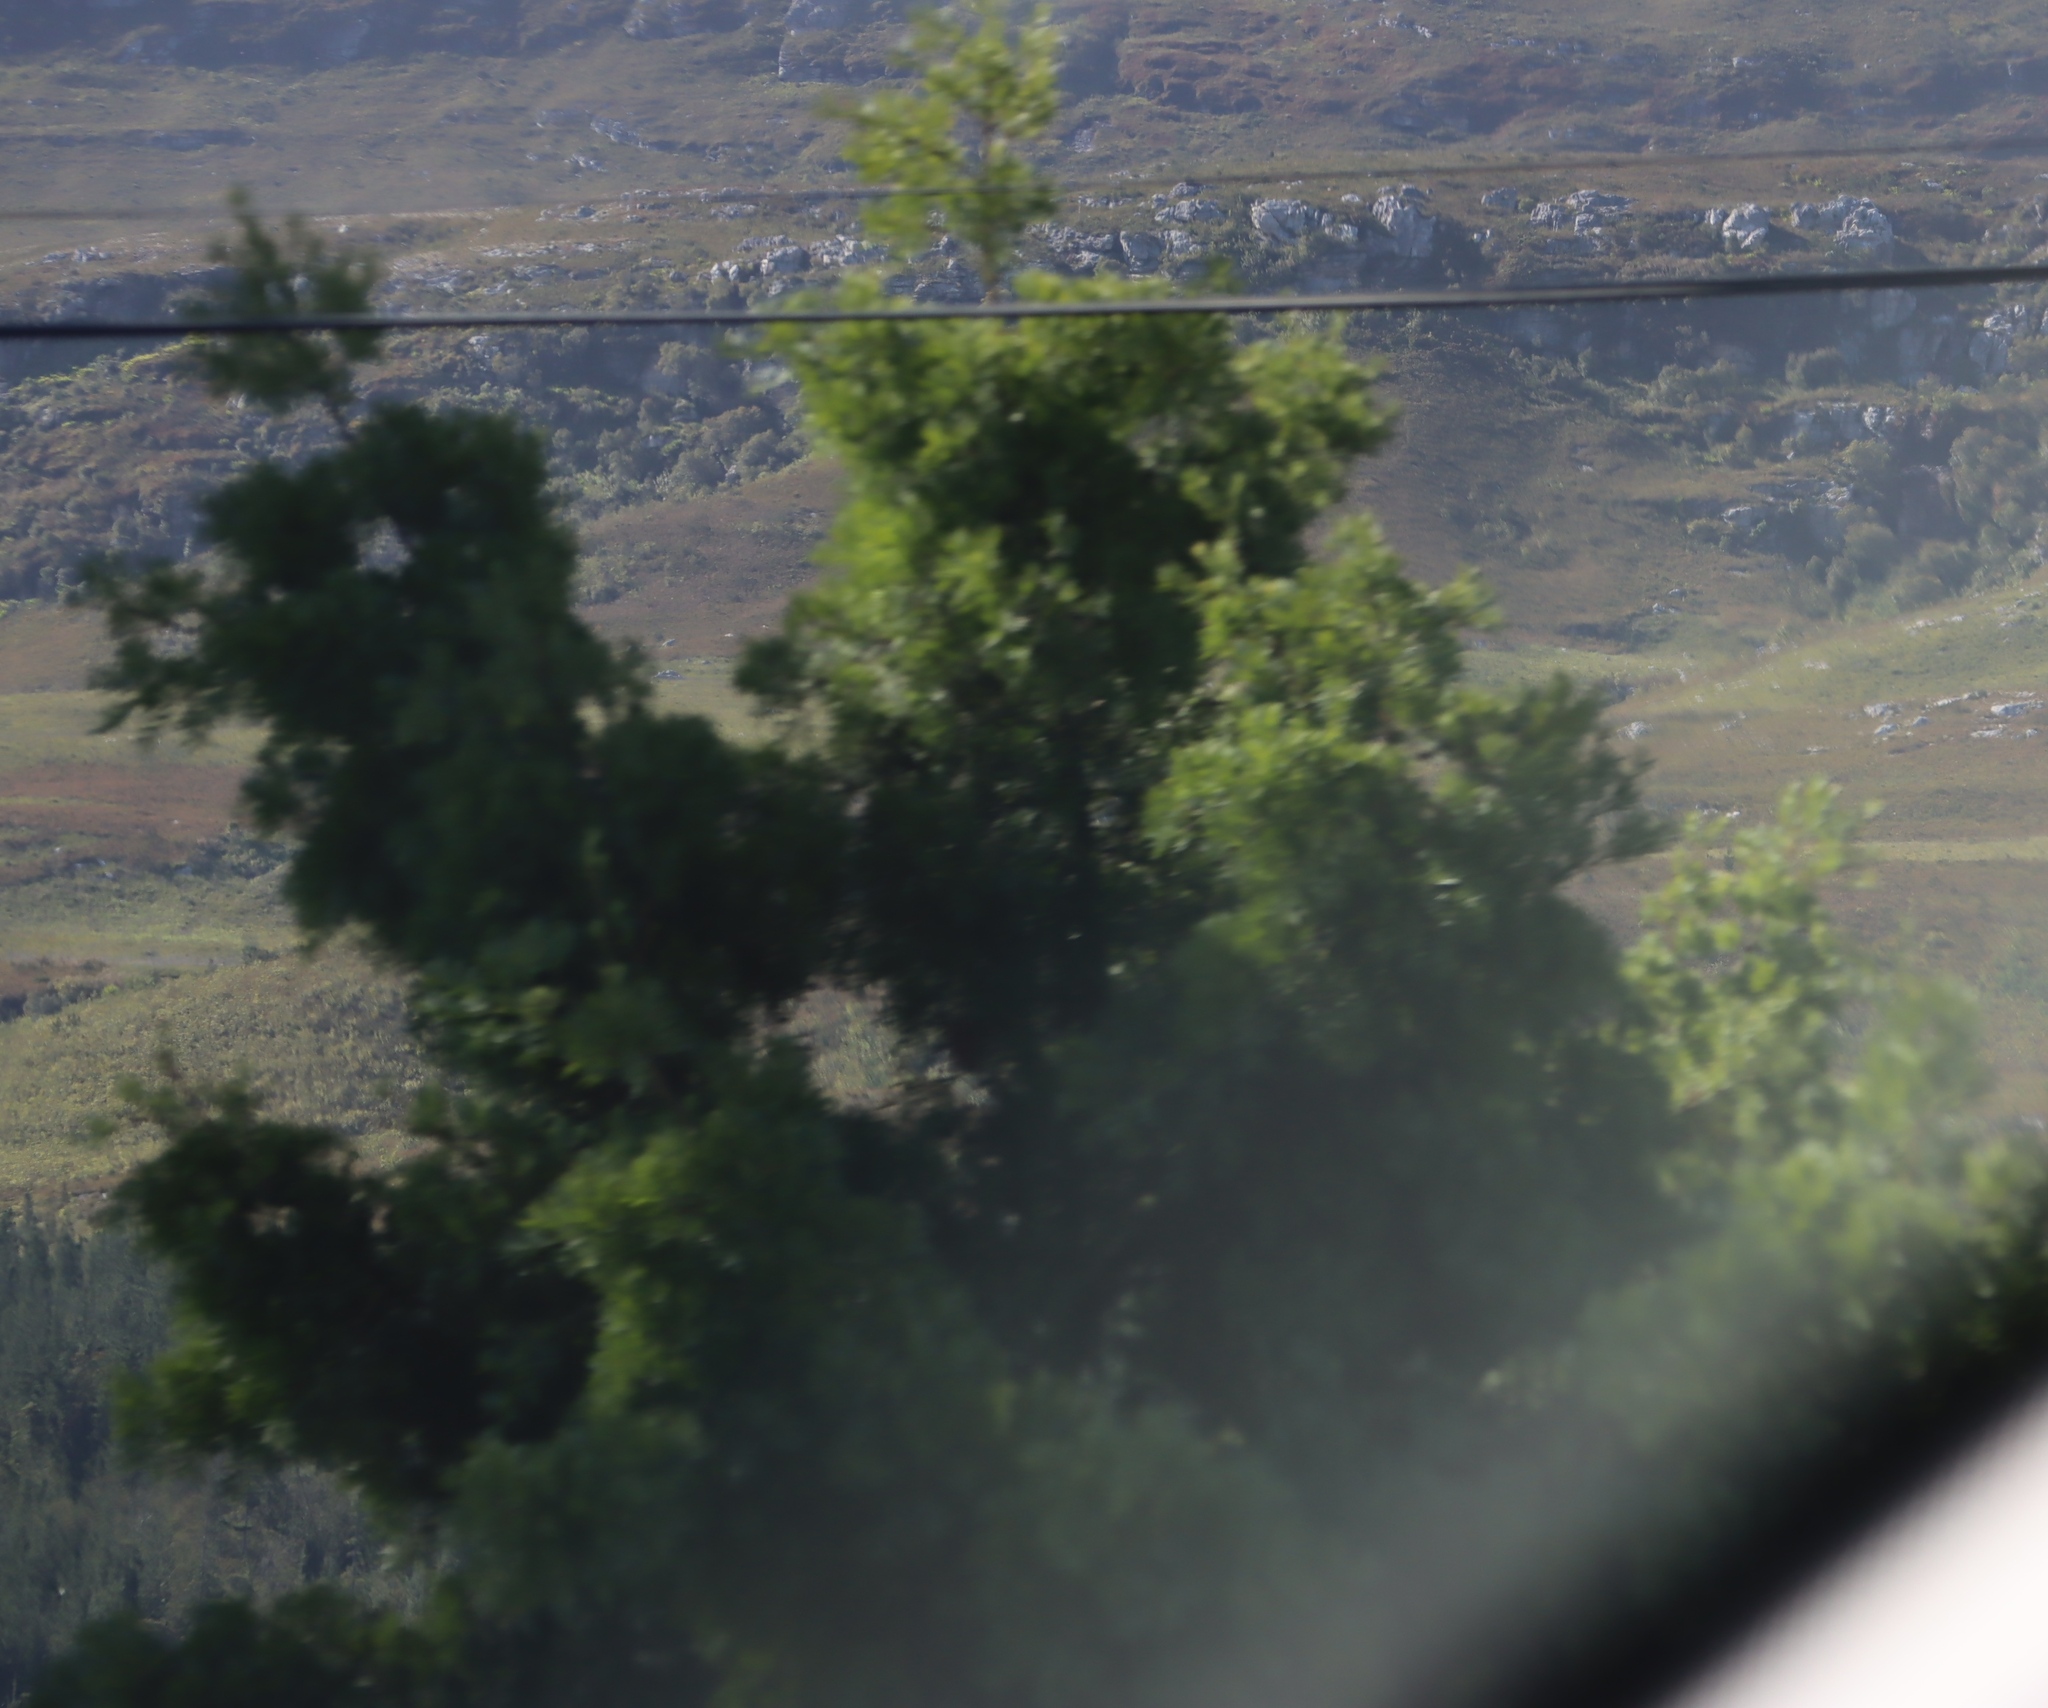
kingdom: Plantae
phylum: Tracheophyta
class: Magnoliopsida
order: Fabales
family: Fabaceae
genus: Acacia
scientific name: Acacia mearnsii
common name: Black wattle
